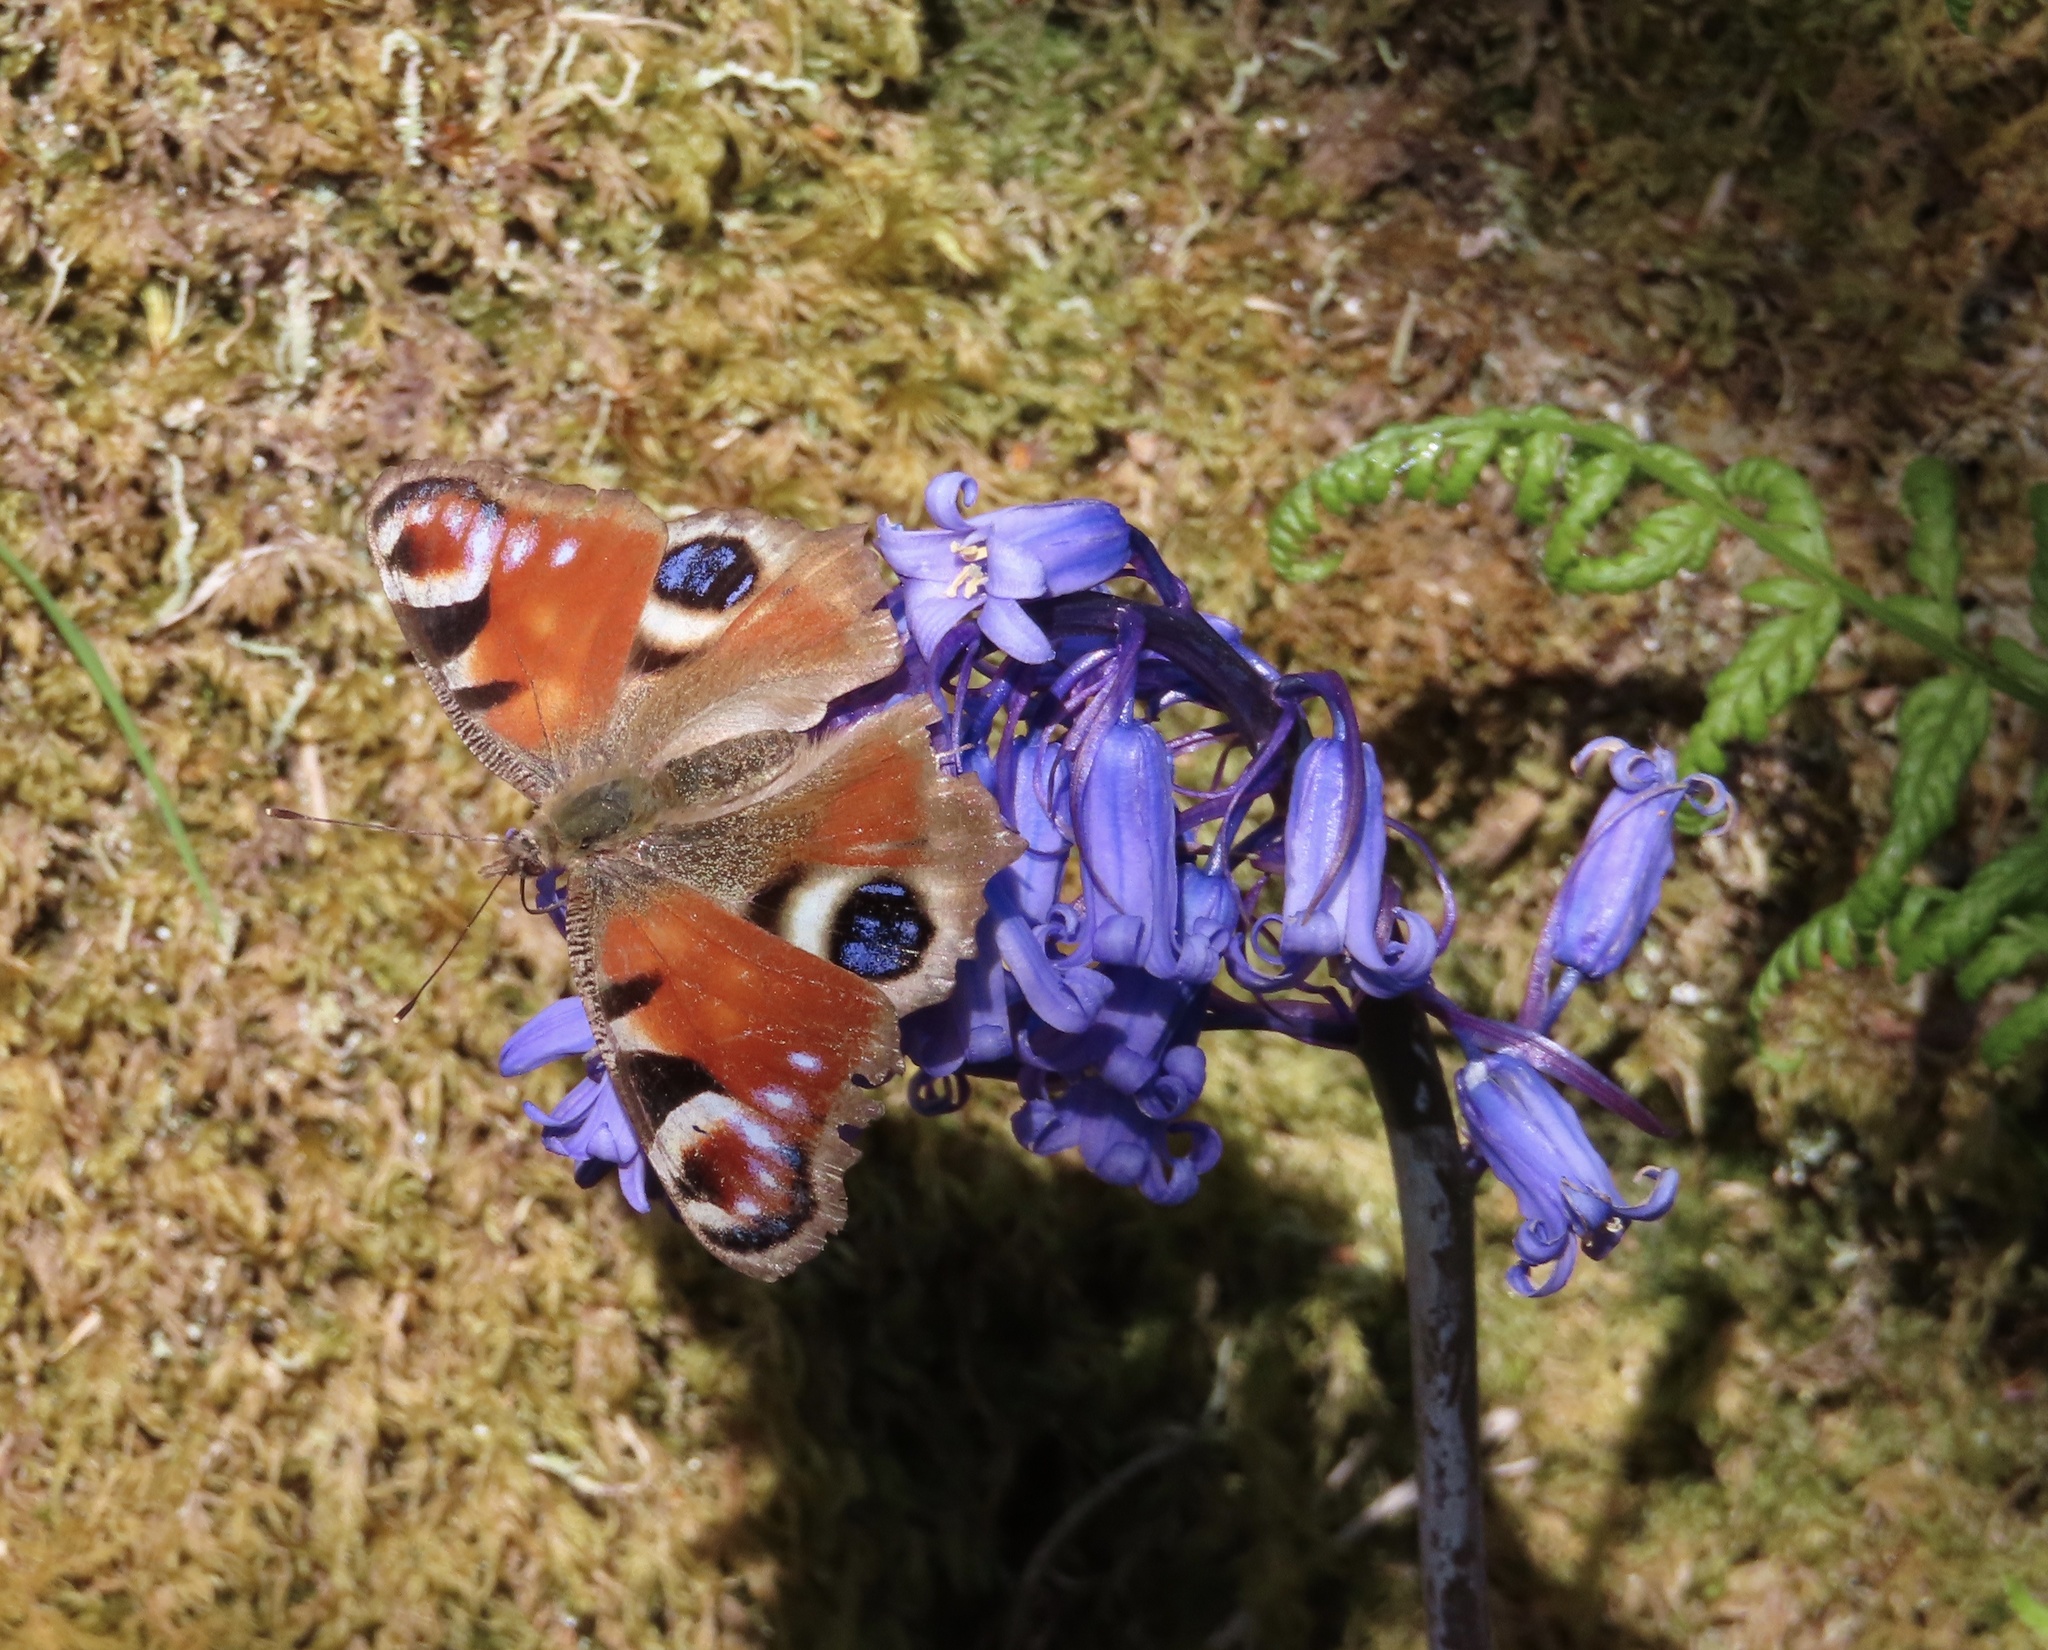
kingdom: Animalia
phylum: Arthropoda
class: Insecta
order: Lepidoptera
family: Nymphalidae
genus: Aglais
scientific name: Aglais io
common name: Peacock
